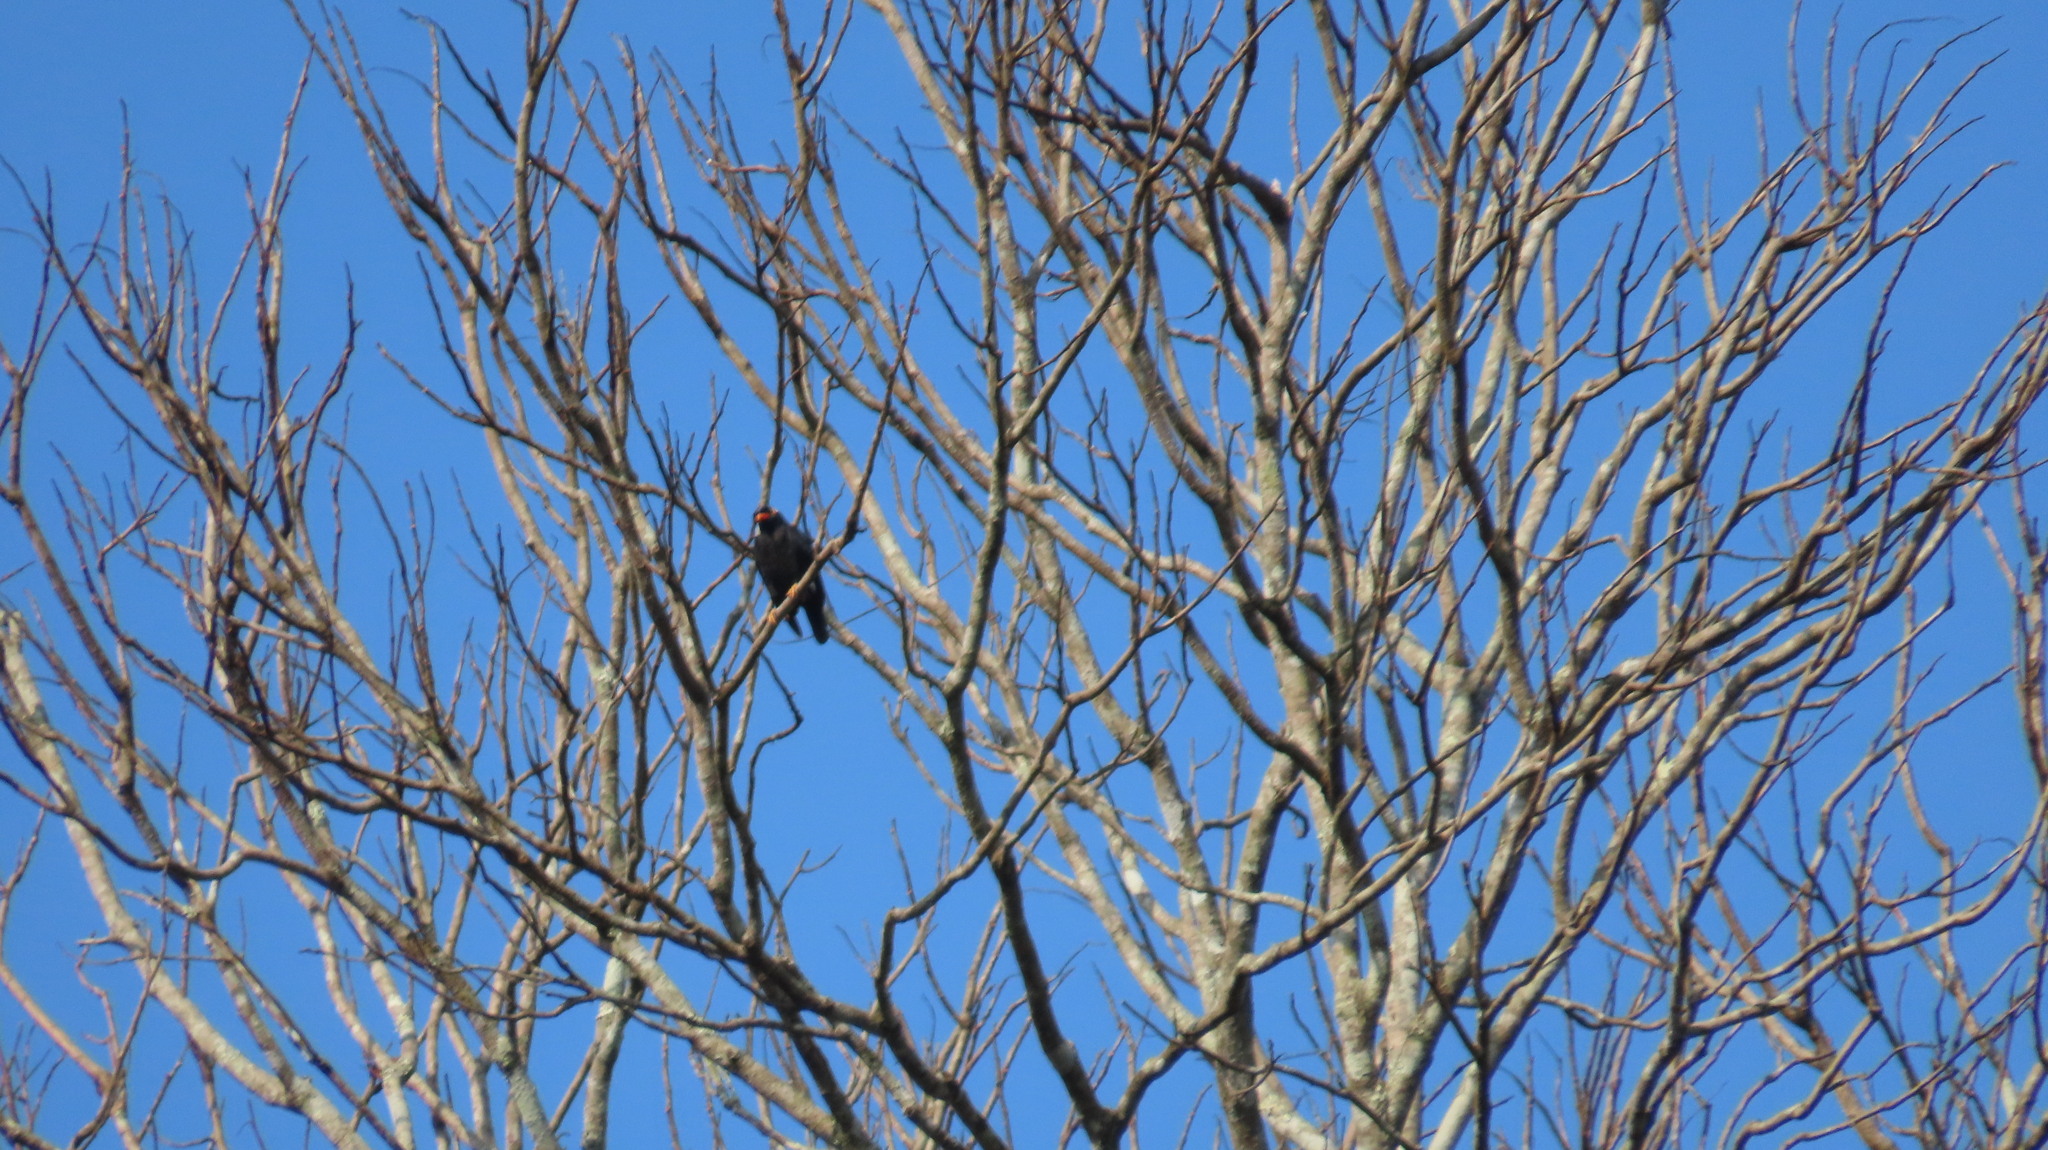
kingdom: Animalia
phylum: Chordata
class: Aves
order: Passeriformes
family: Sturnidae
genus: Gracula
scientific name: Gracula indica
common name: Southern hill myna
